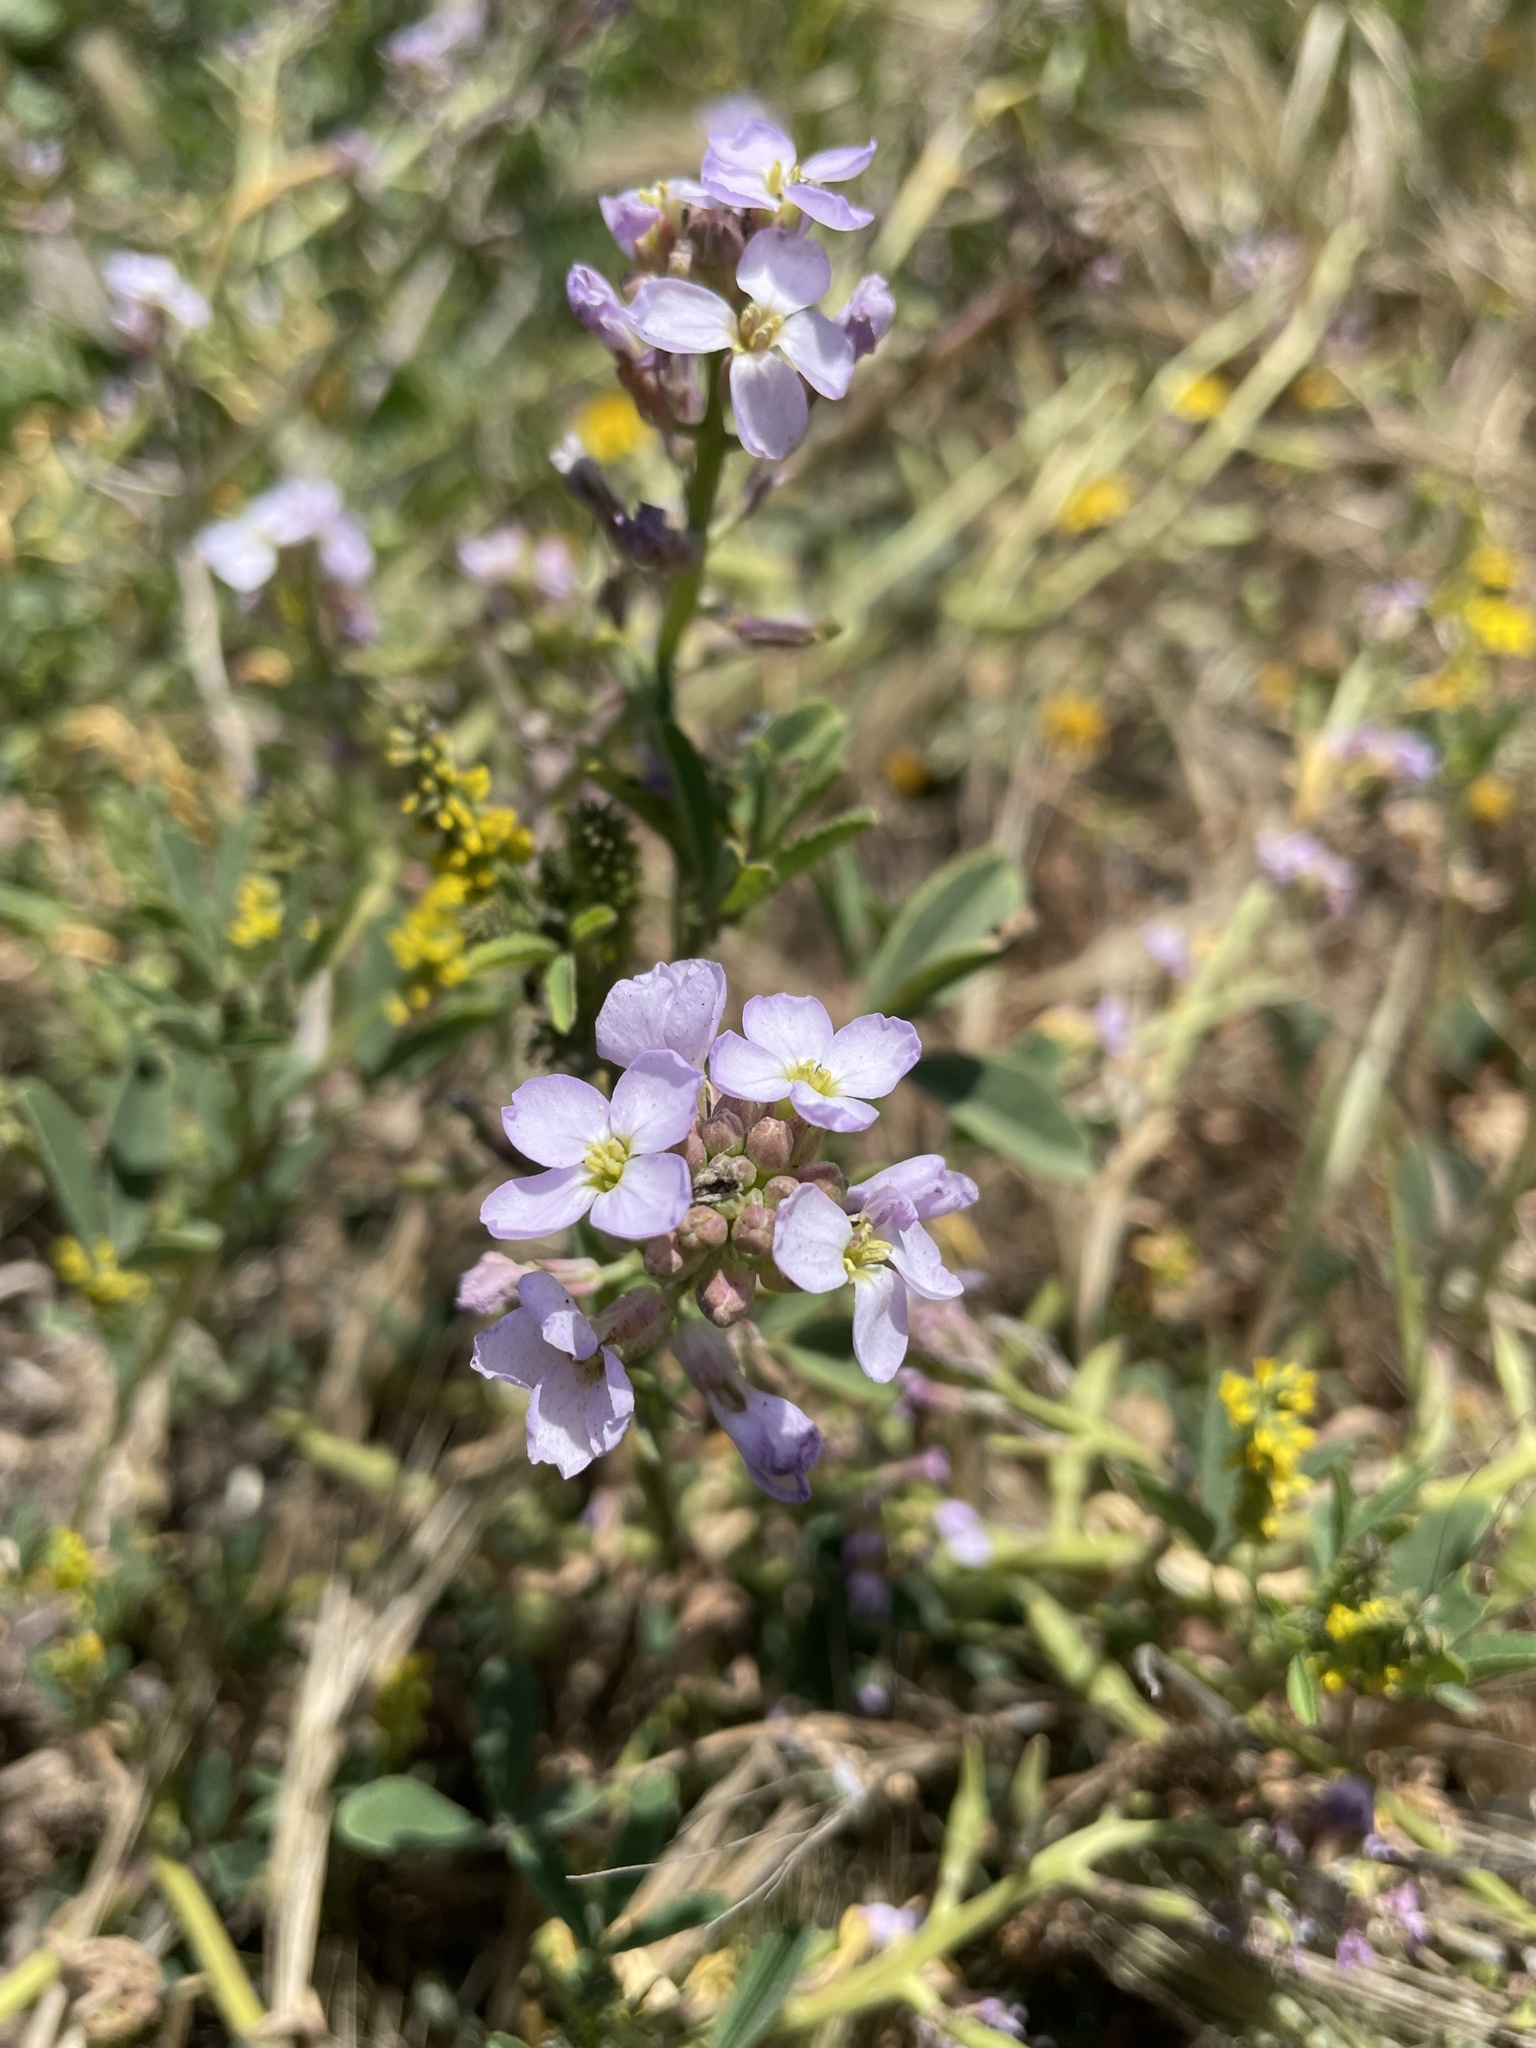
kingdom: Plantae
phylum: Tracheophyta
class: Magnoliopsida
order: Brassicales
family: Brassicaceae
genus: Cakile
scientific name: Cakile maritima
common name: Sea rocket
